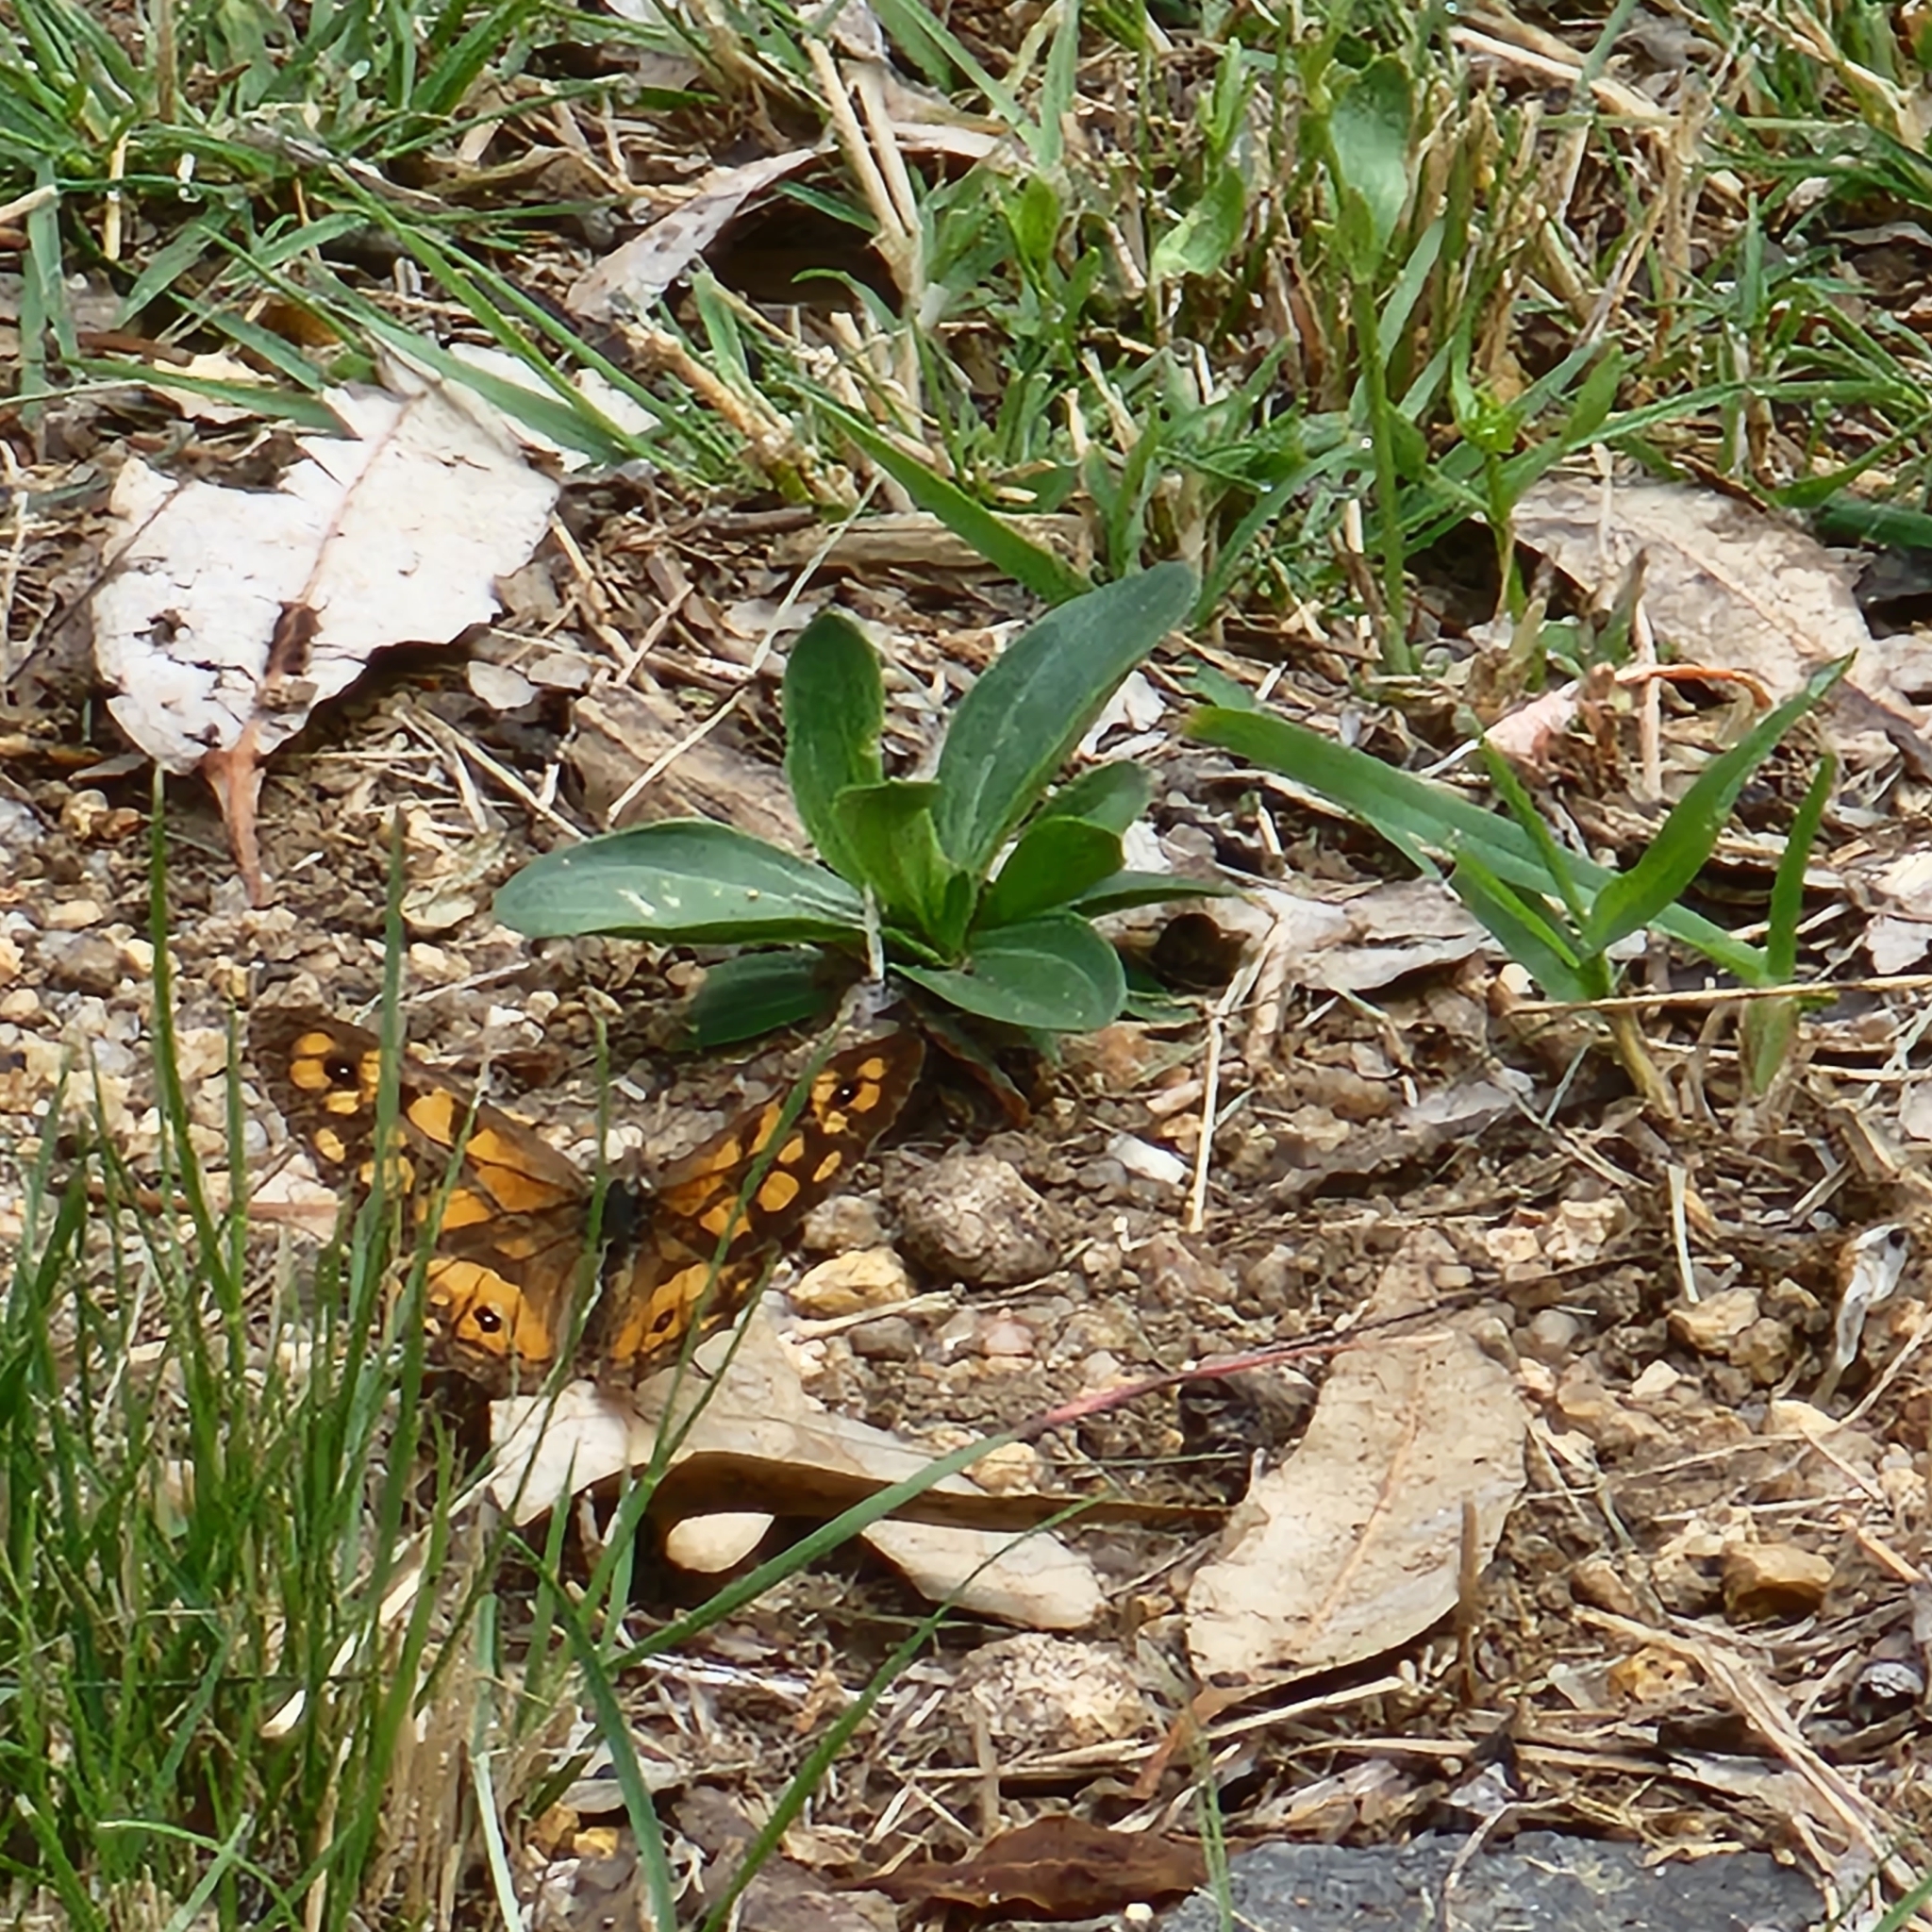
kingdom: Animalia
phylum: Arthropoda
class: Insecta
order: Lepidoptera
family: Nymphalidae
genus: Geitoneura
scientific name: Geitoneura klugii
